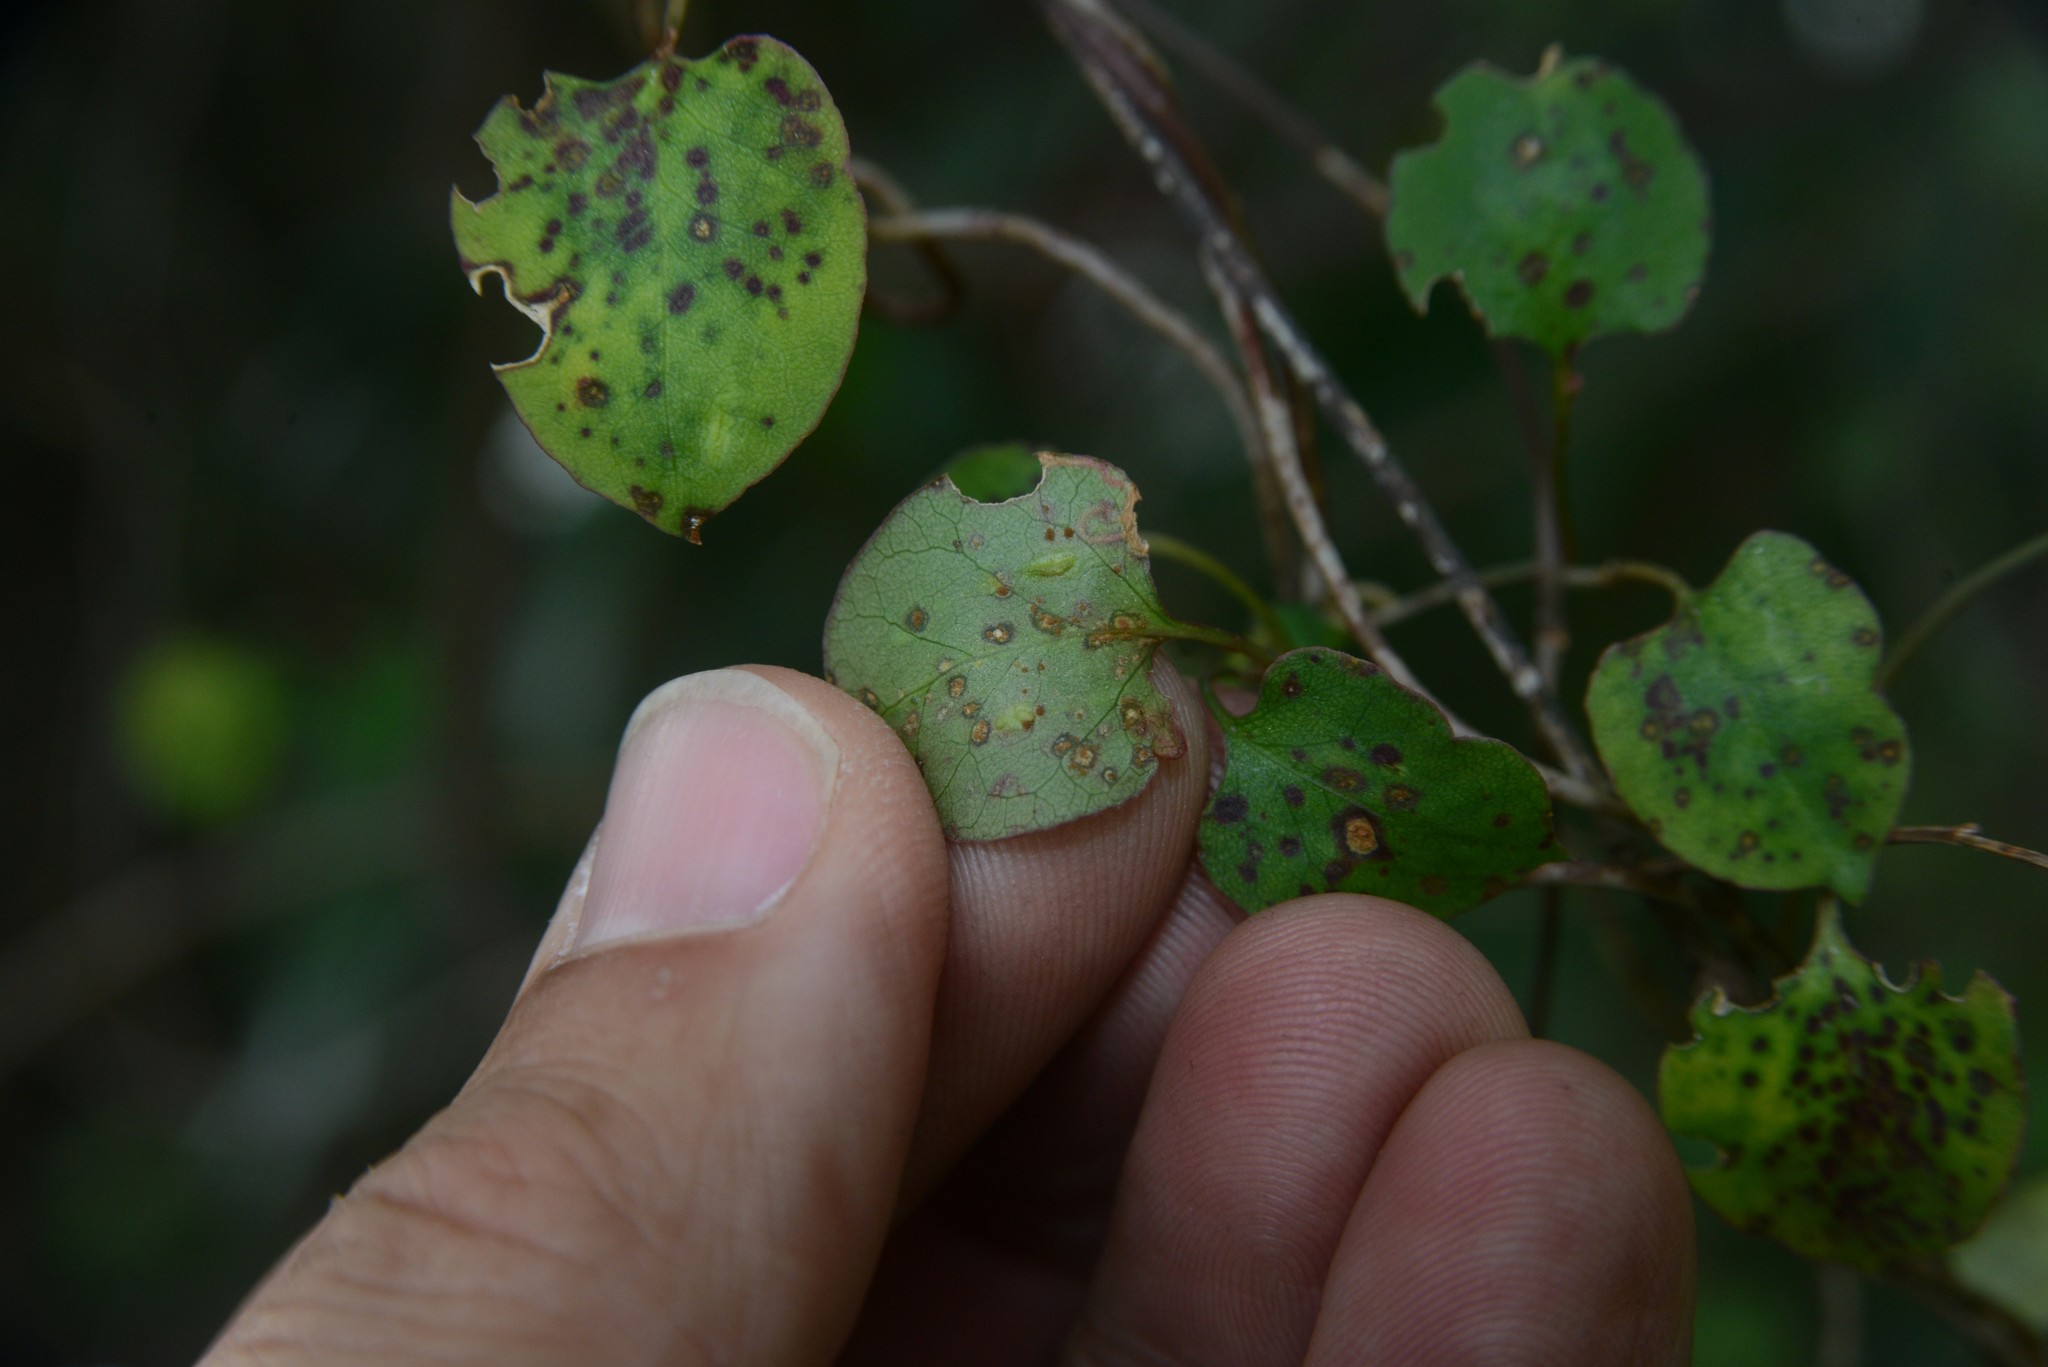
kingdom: Fungi
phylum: Basidiomycota
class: Pucciniomycetes
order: Pucciniales
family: Pucciniaceae
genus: Puccinia
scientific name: Puccinia otagensis
